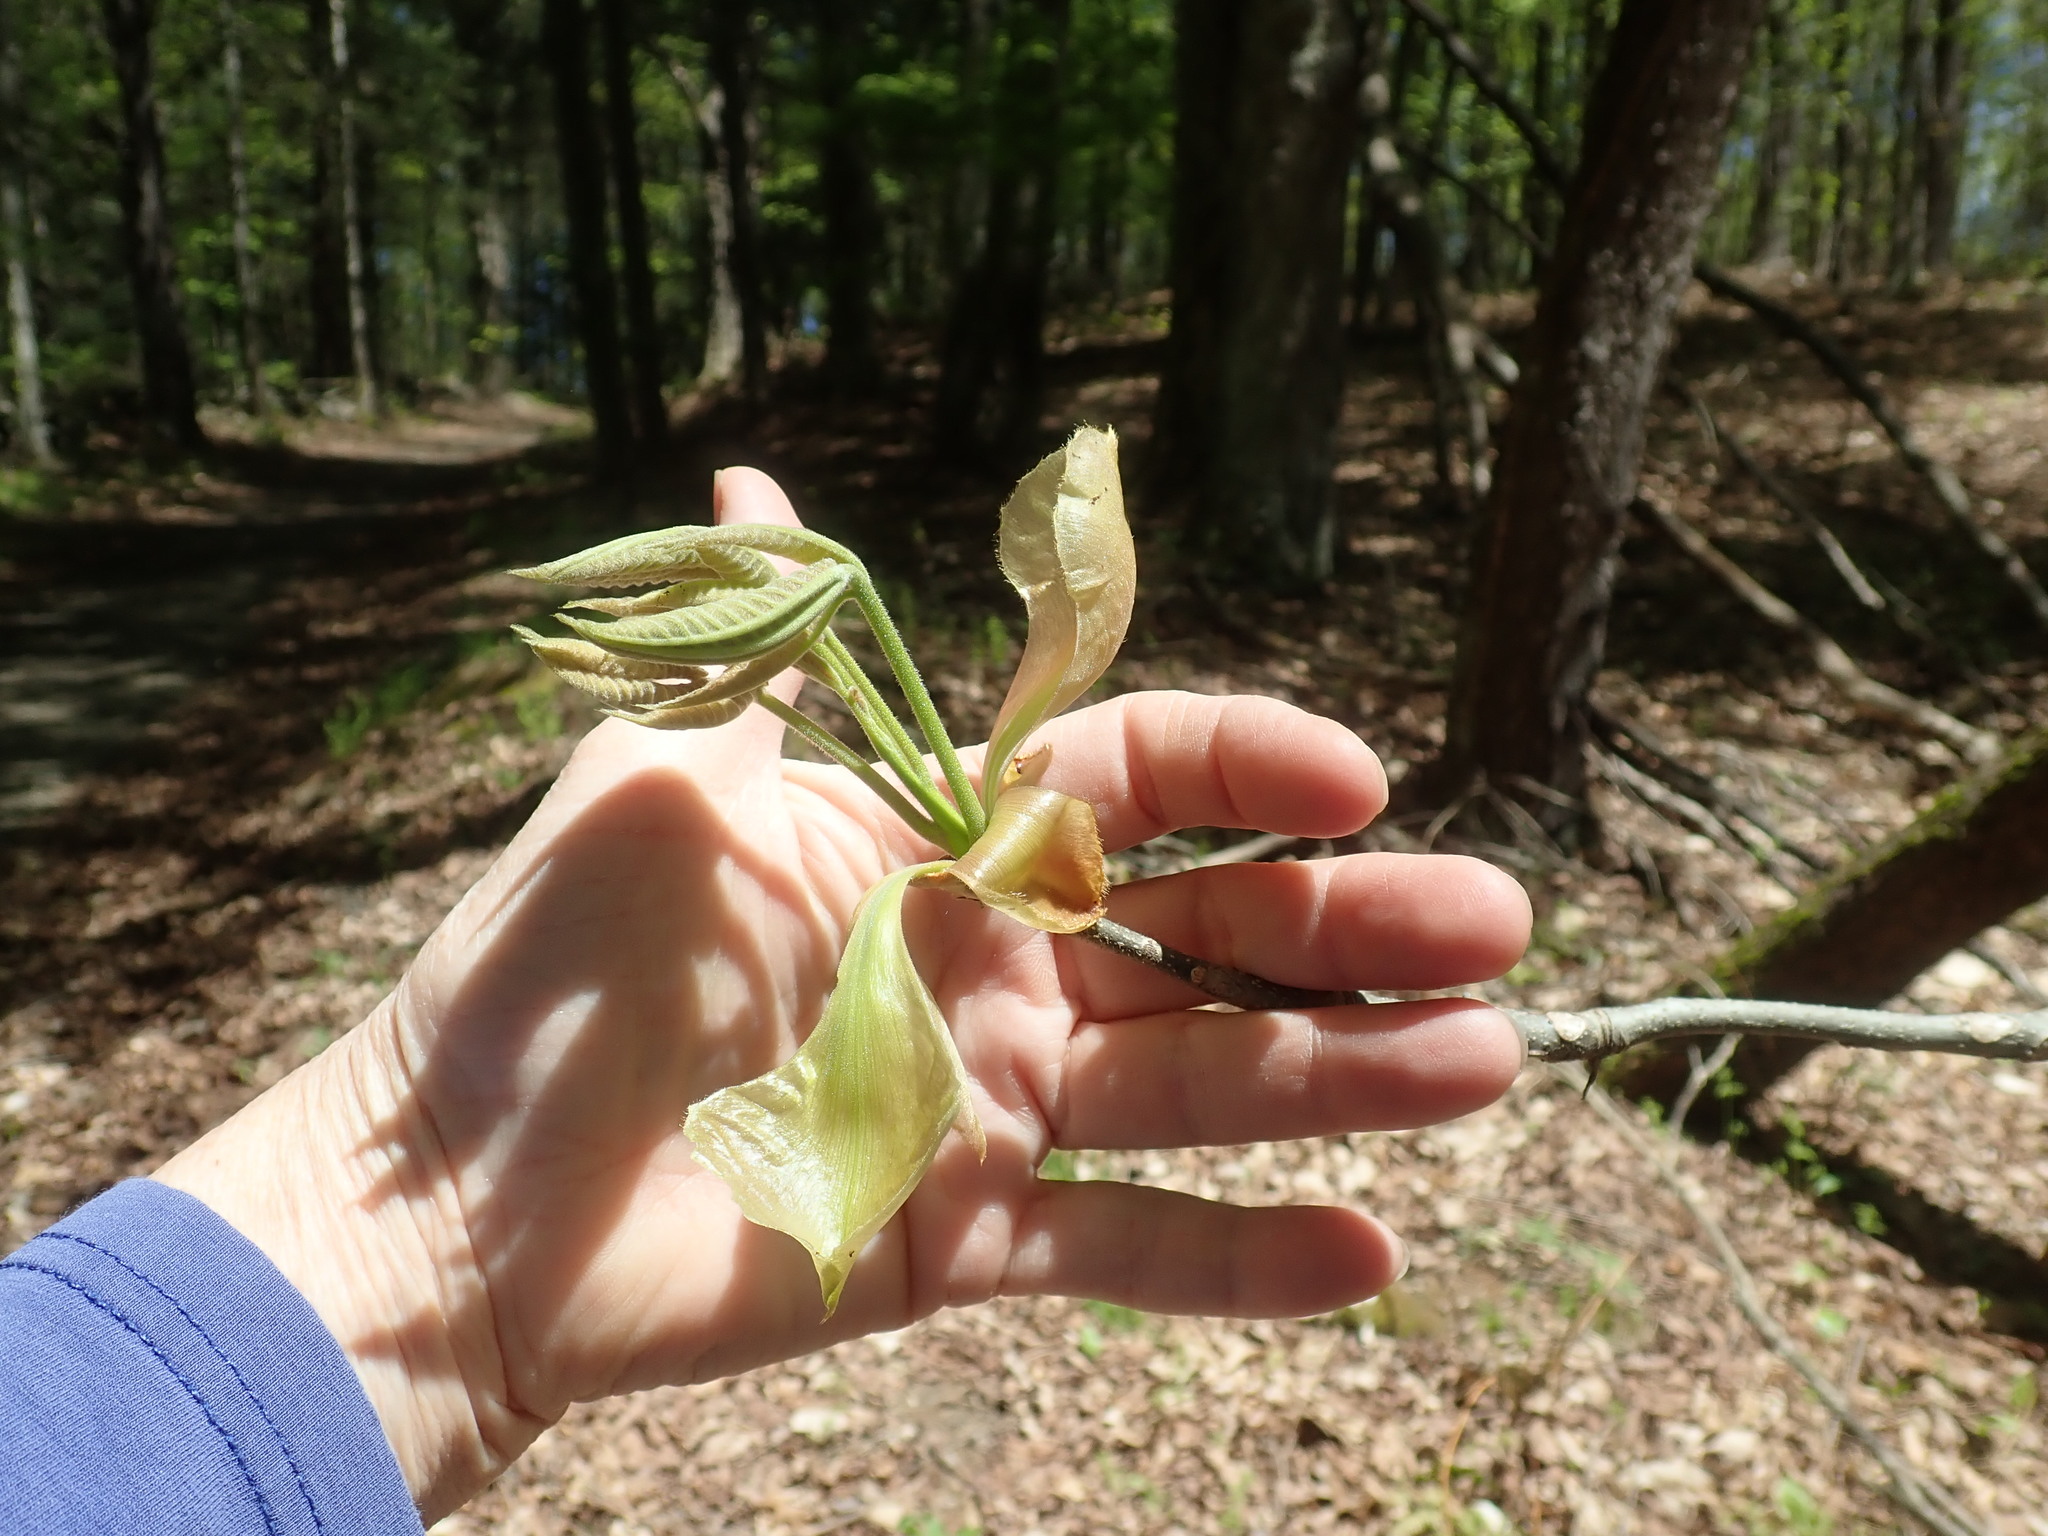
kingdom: Plantae
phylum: Tracheophyta
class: Magnoliopsida
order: Fagales
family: Juglandaceae
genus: Carya
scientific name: Carya
